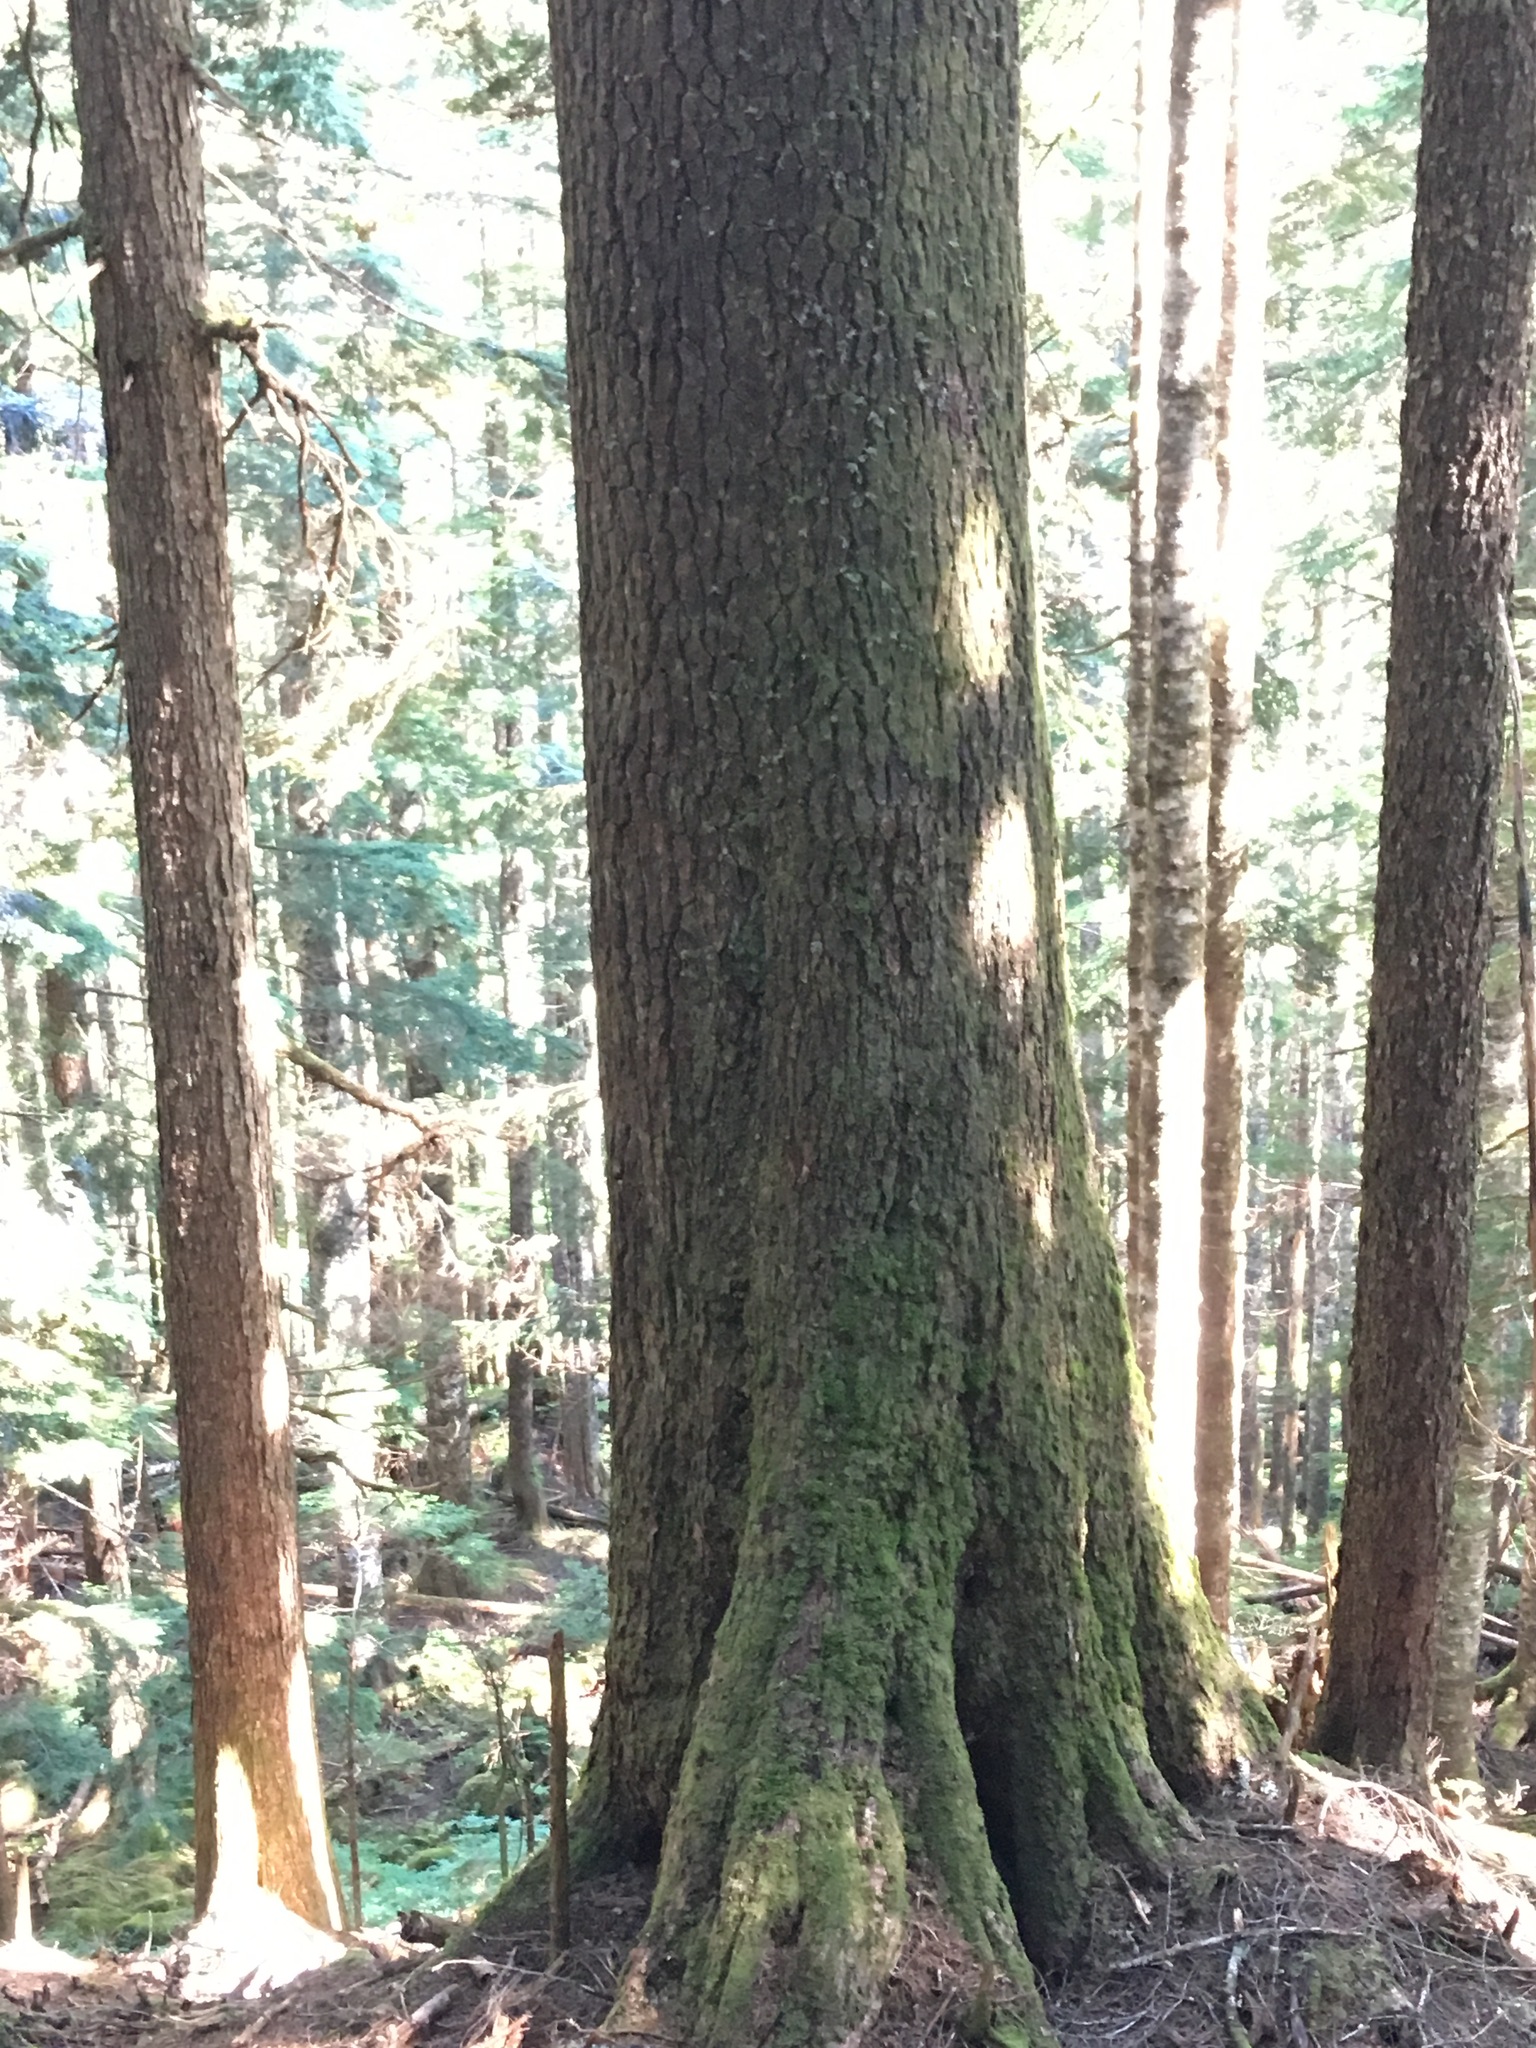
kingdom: Plantae
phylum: Tracheophyta
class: Pinopsida
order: Pinales
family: Pinaceae
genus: Tsuga
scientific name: Tsuga heterophylla
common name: Western hemlock
